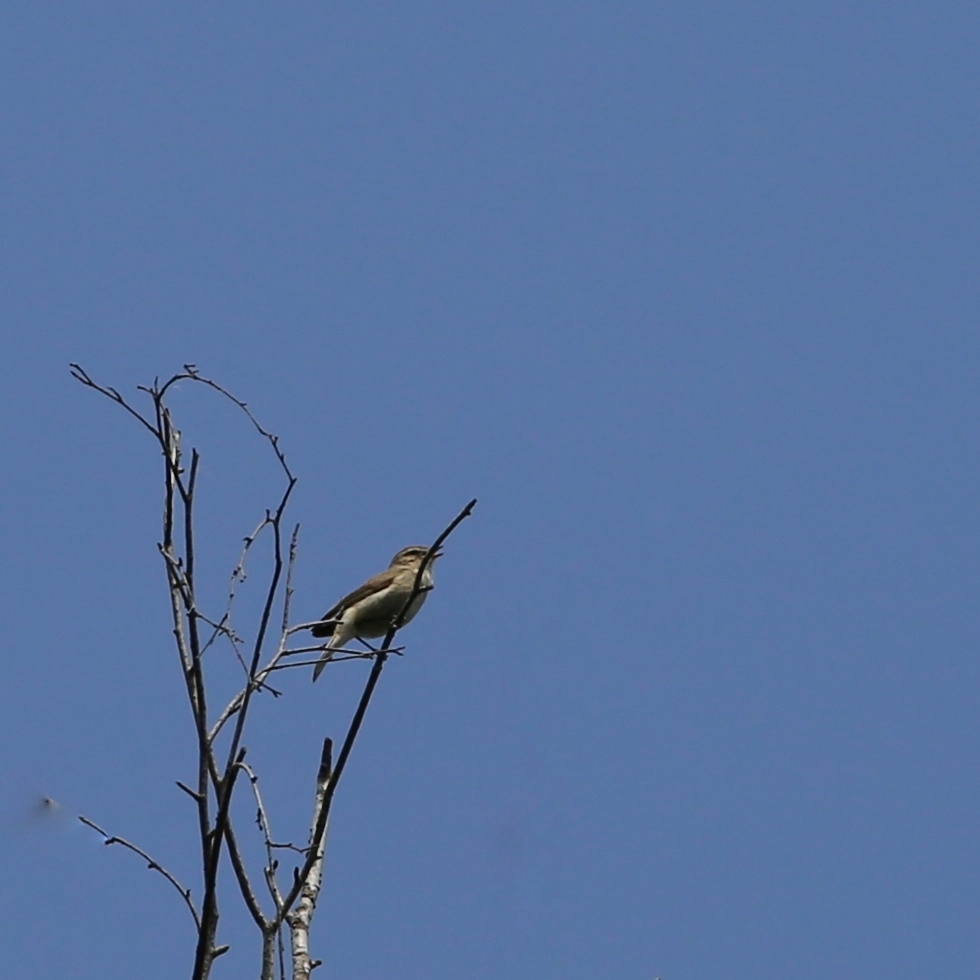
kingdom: Animalia
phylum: Chordata
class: Aves
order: Passeriformes
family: Phylloscopidae
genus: Phylloscopus
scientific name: Phylloscopus collybita
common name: Common chiffchaff
